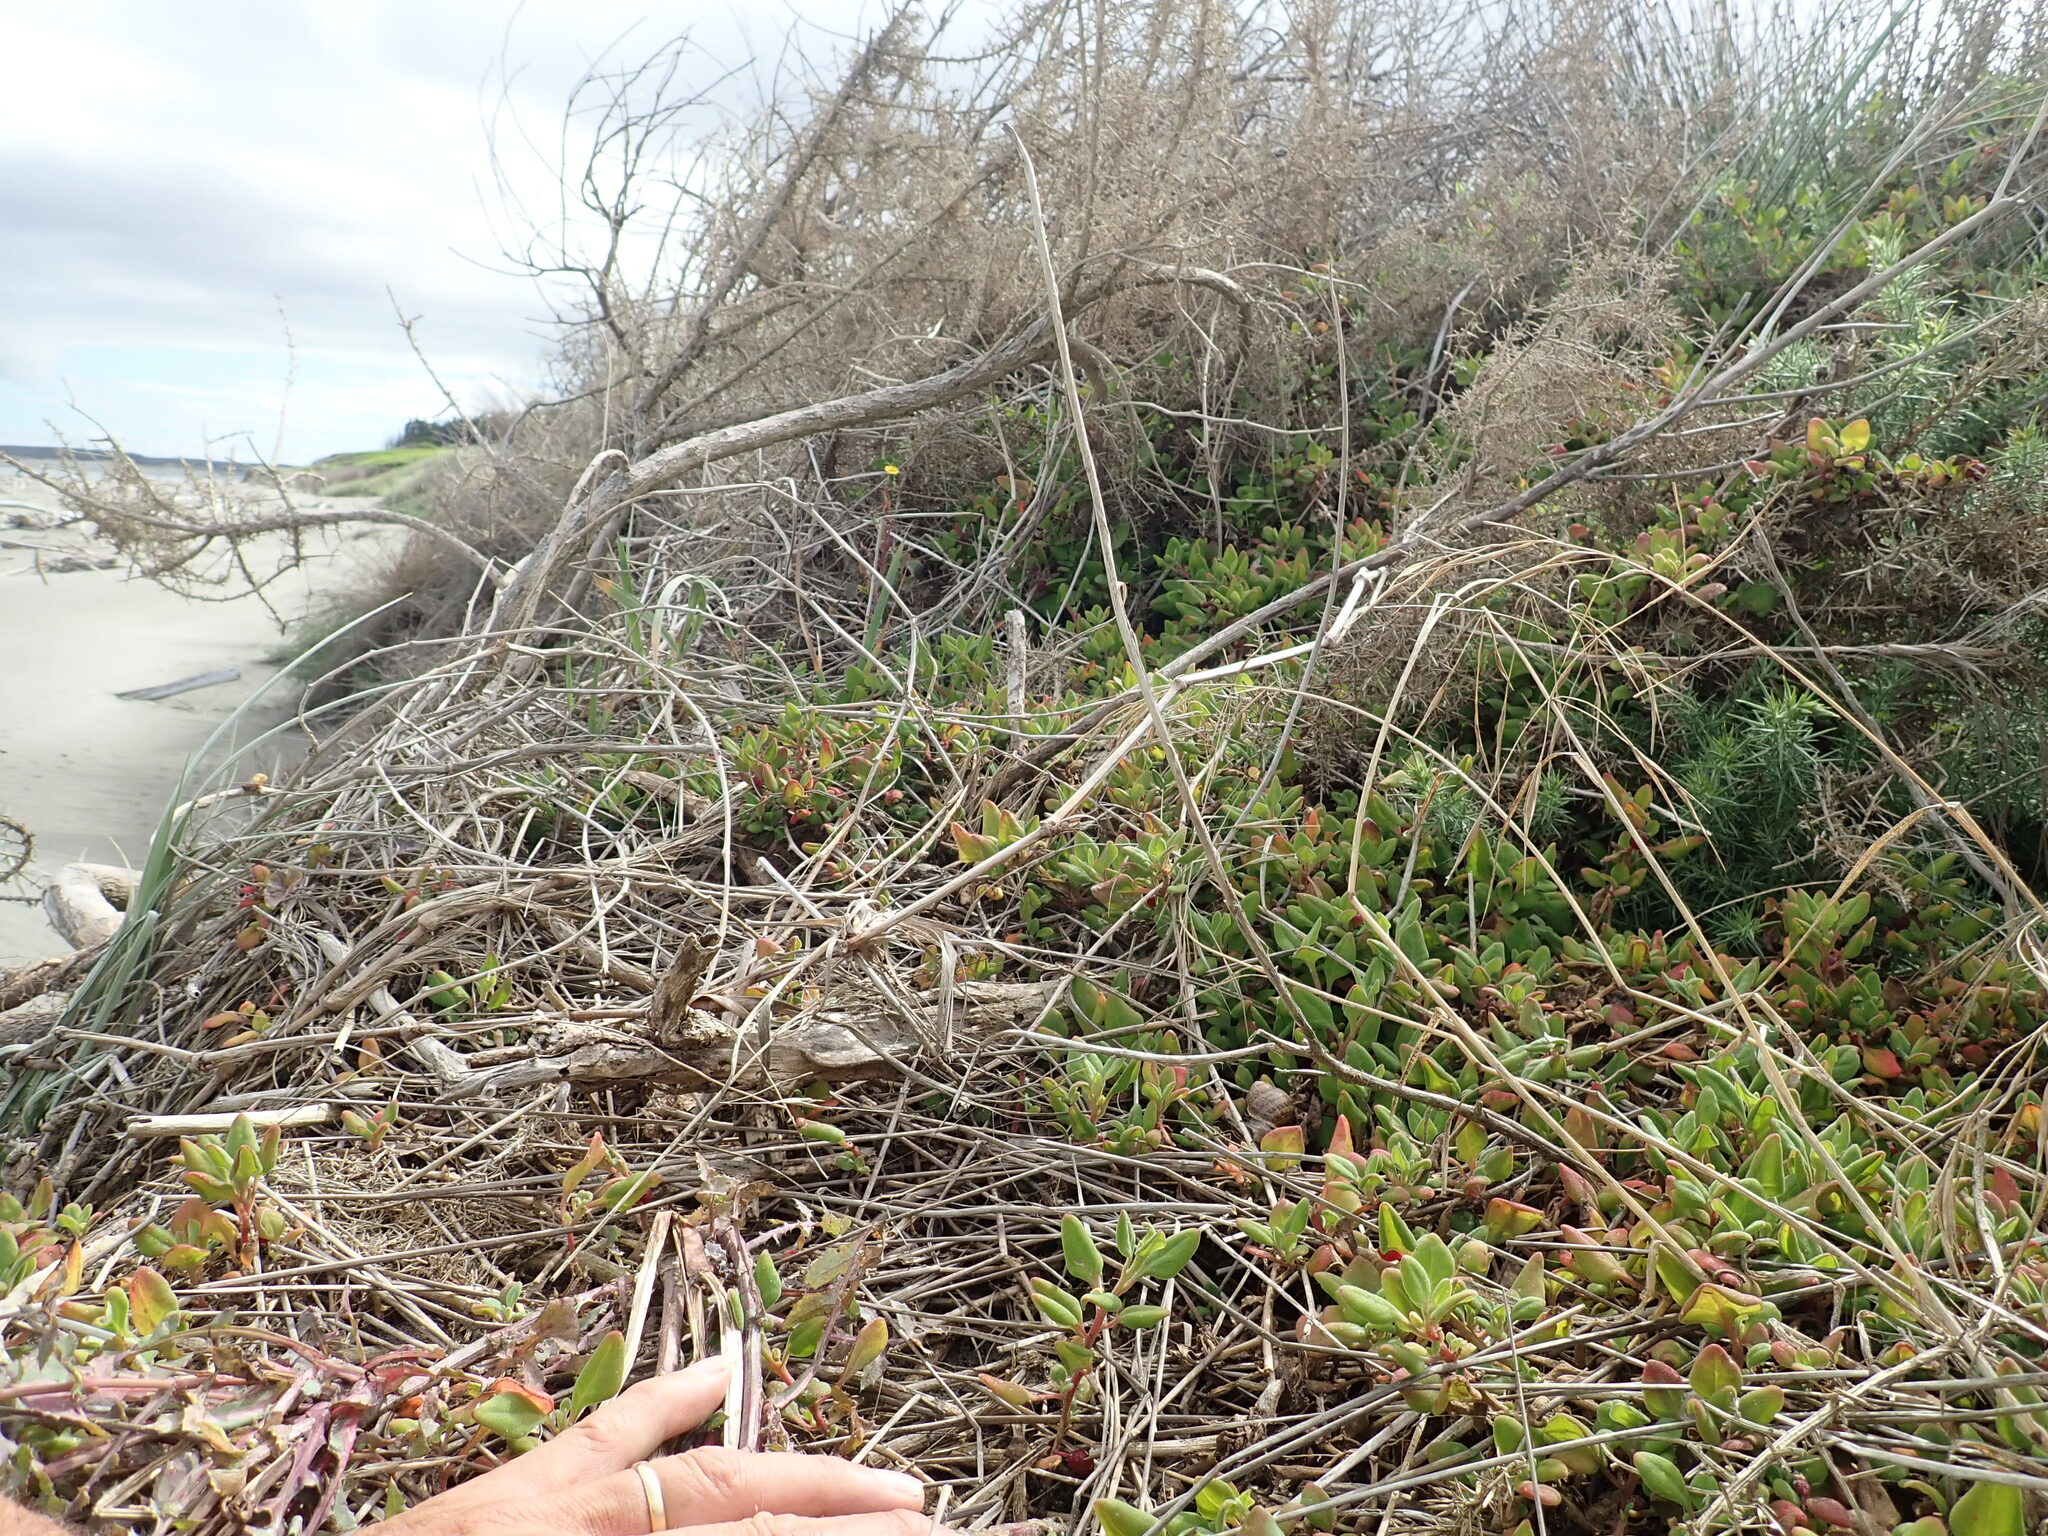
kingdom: Plantae
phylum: Tracheophyta
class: Magnoliopsida
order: Caryophyllales
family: Aizoaceae
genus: Tetragonia
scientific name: Tetragonia implexicoma
